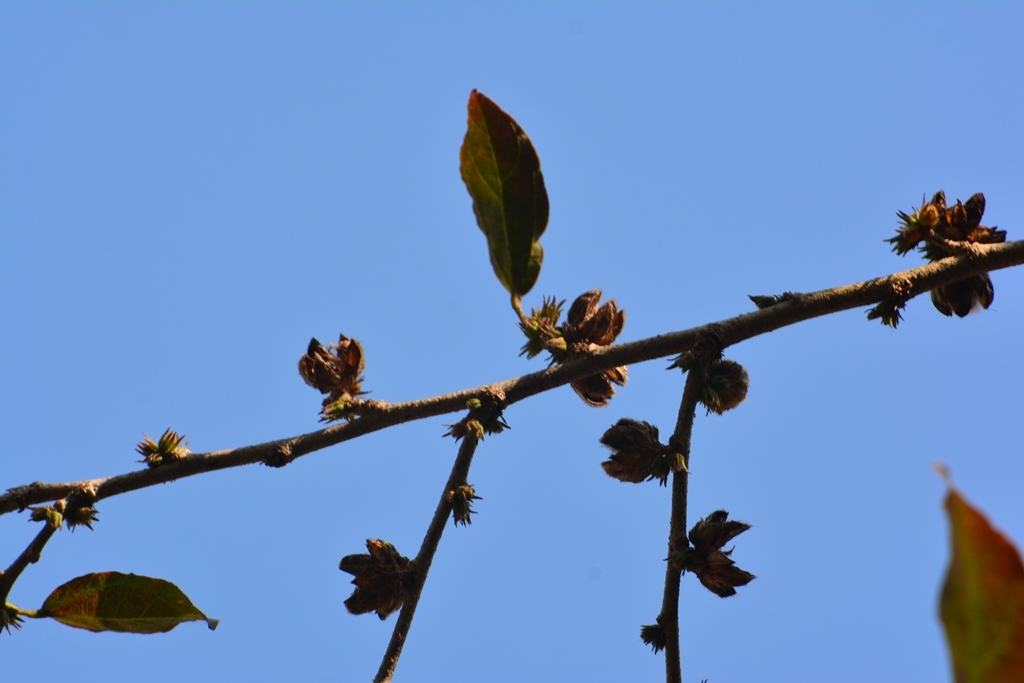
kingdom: Plantae
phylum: Tracheophyta
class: Magnoliopsida
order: Malvales
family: Malvaceae
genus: Hibiscus
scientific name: Hibiscus purpusii
